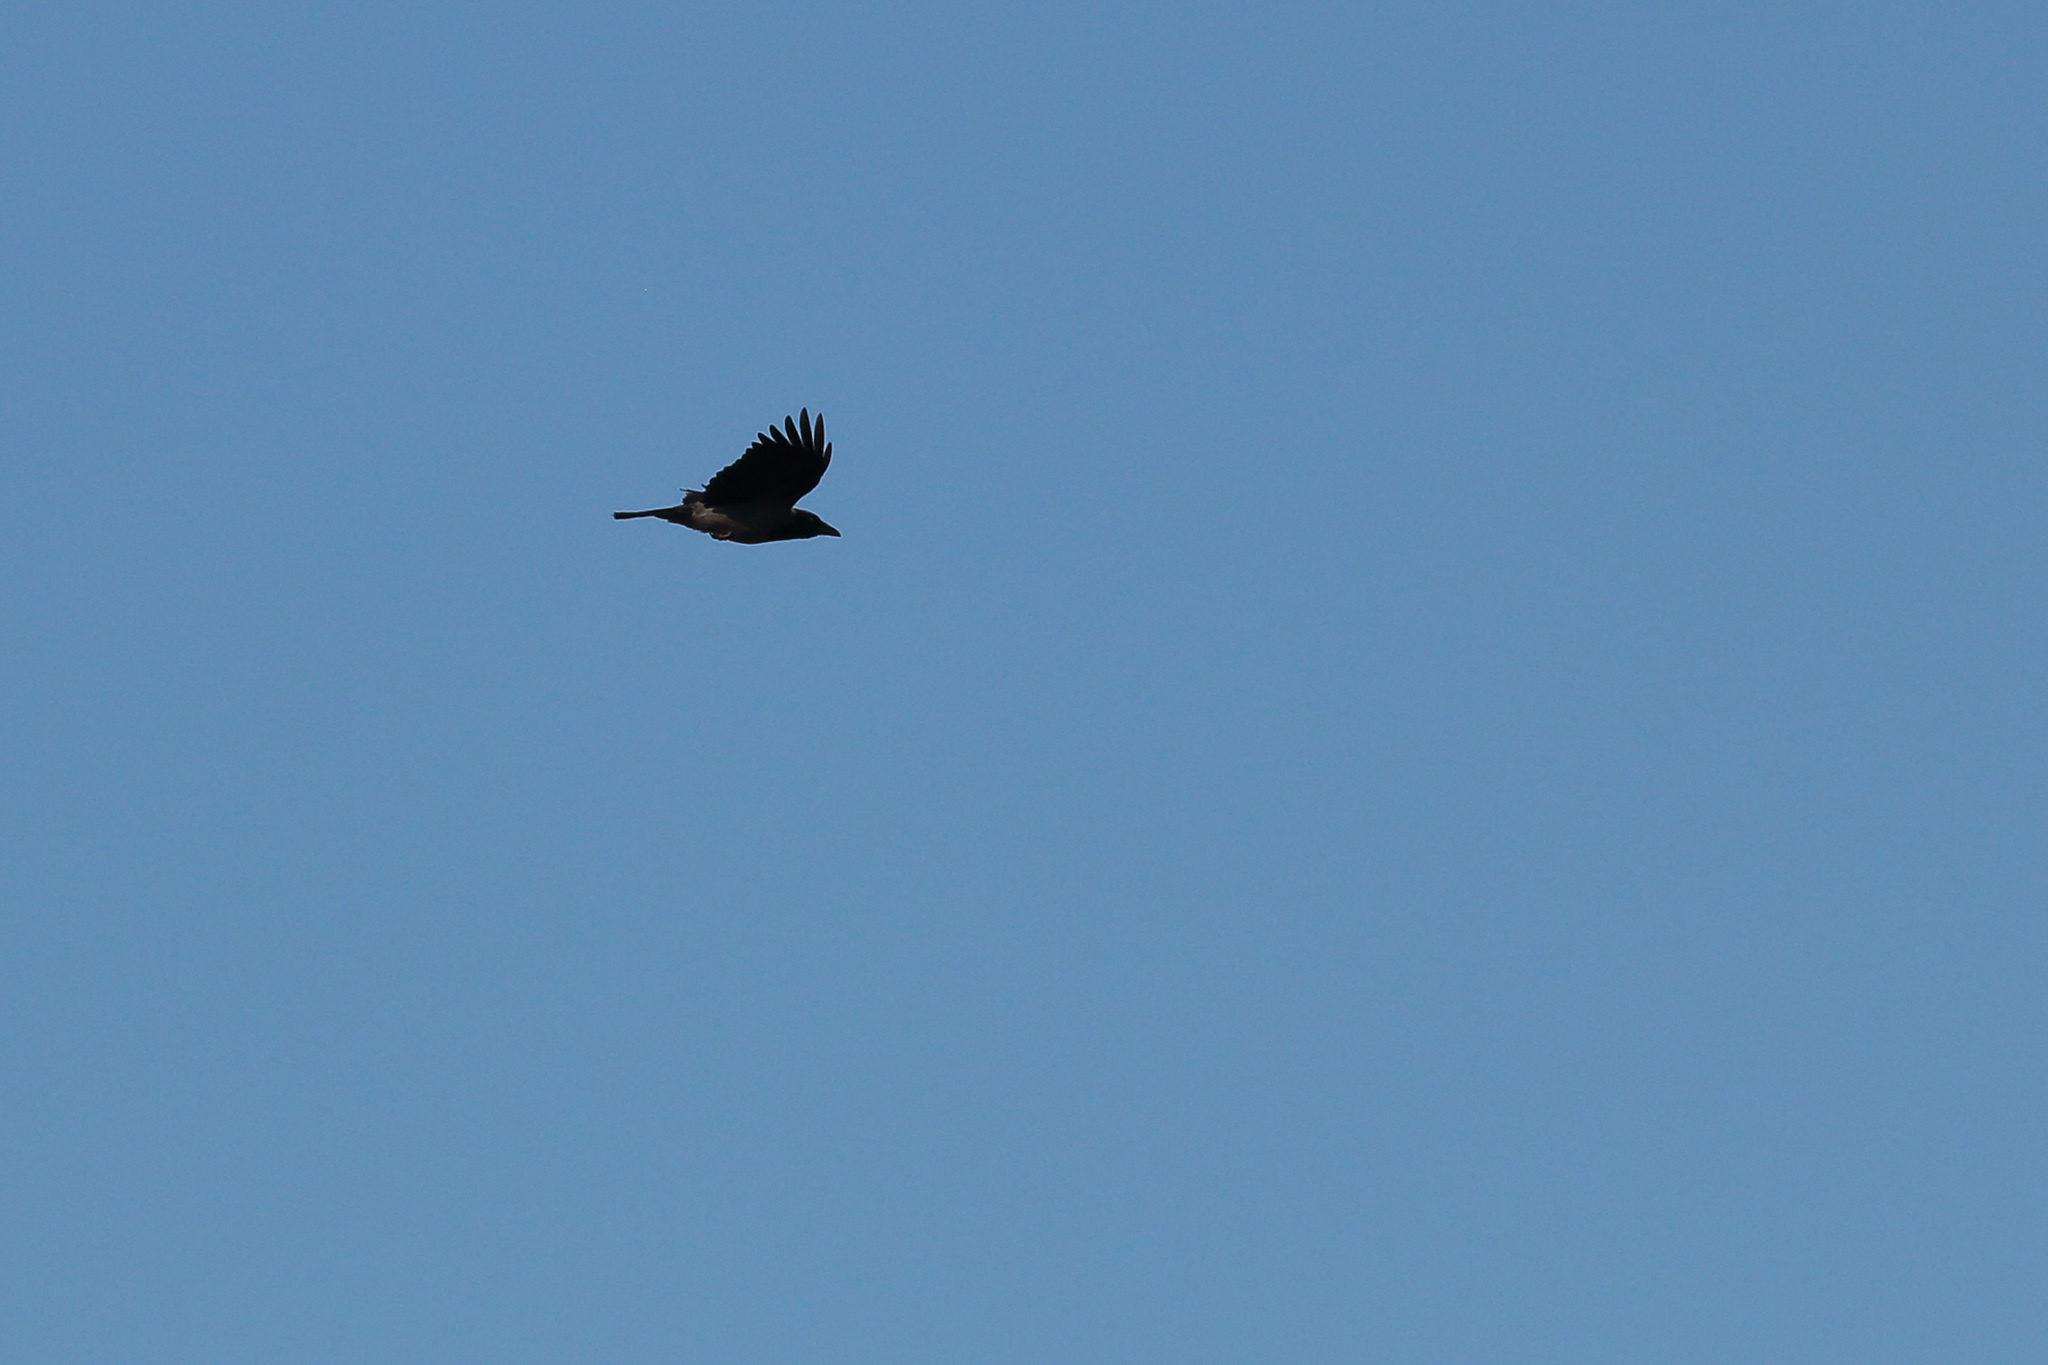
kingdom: Animalia
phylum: Chordata
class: Aves
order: Passeriformes
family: Corvidae
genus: Corvus
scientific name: Corvus cornix
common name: Hooded crow
